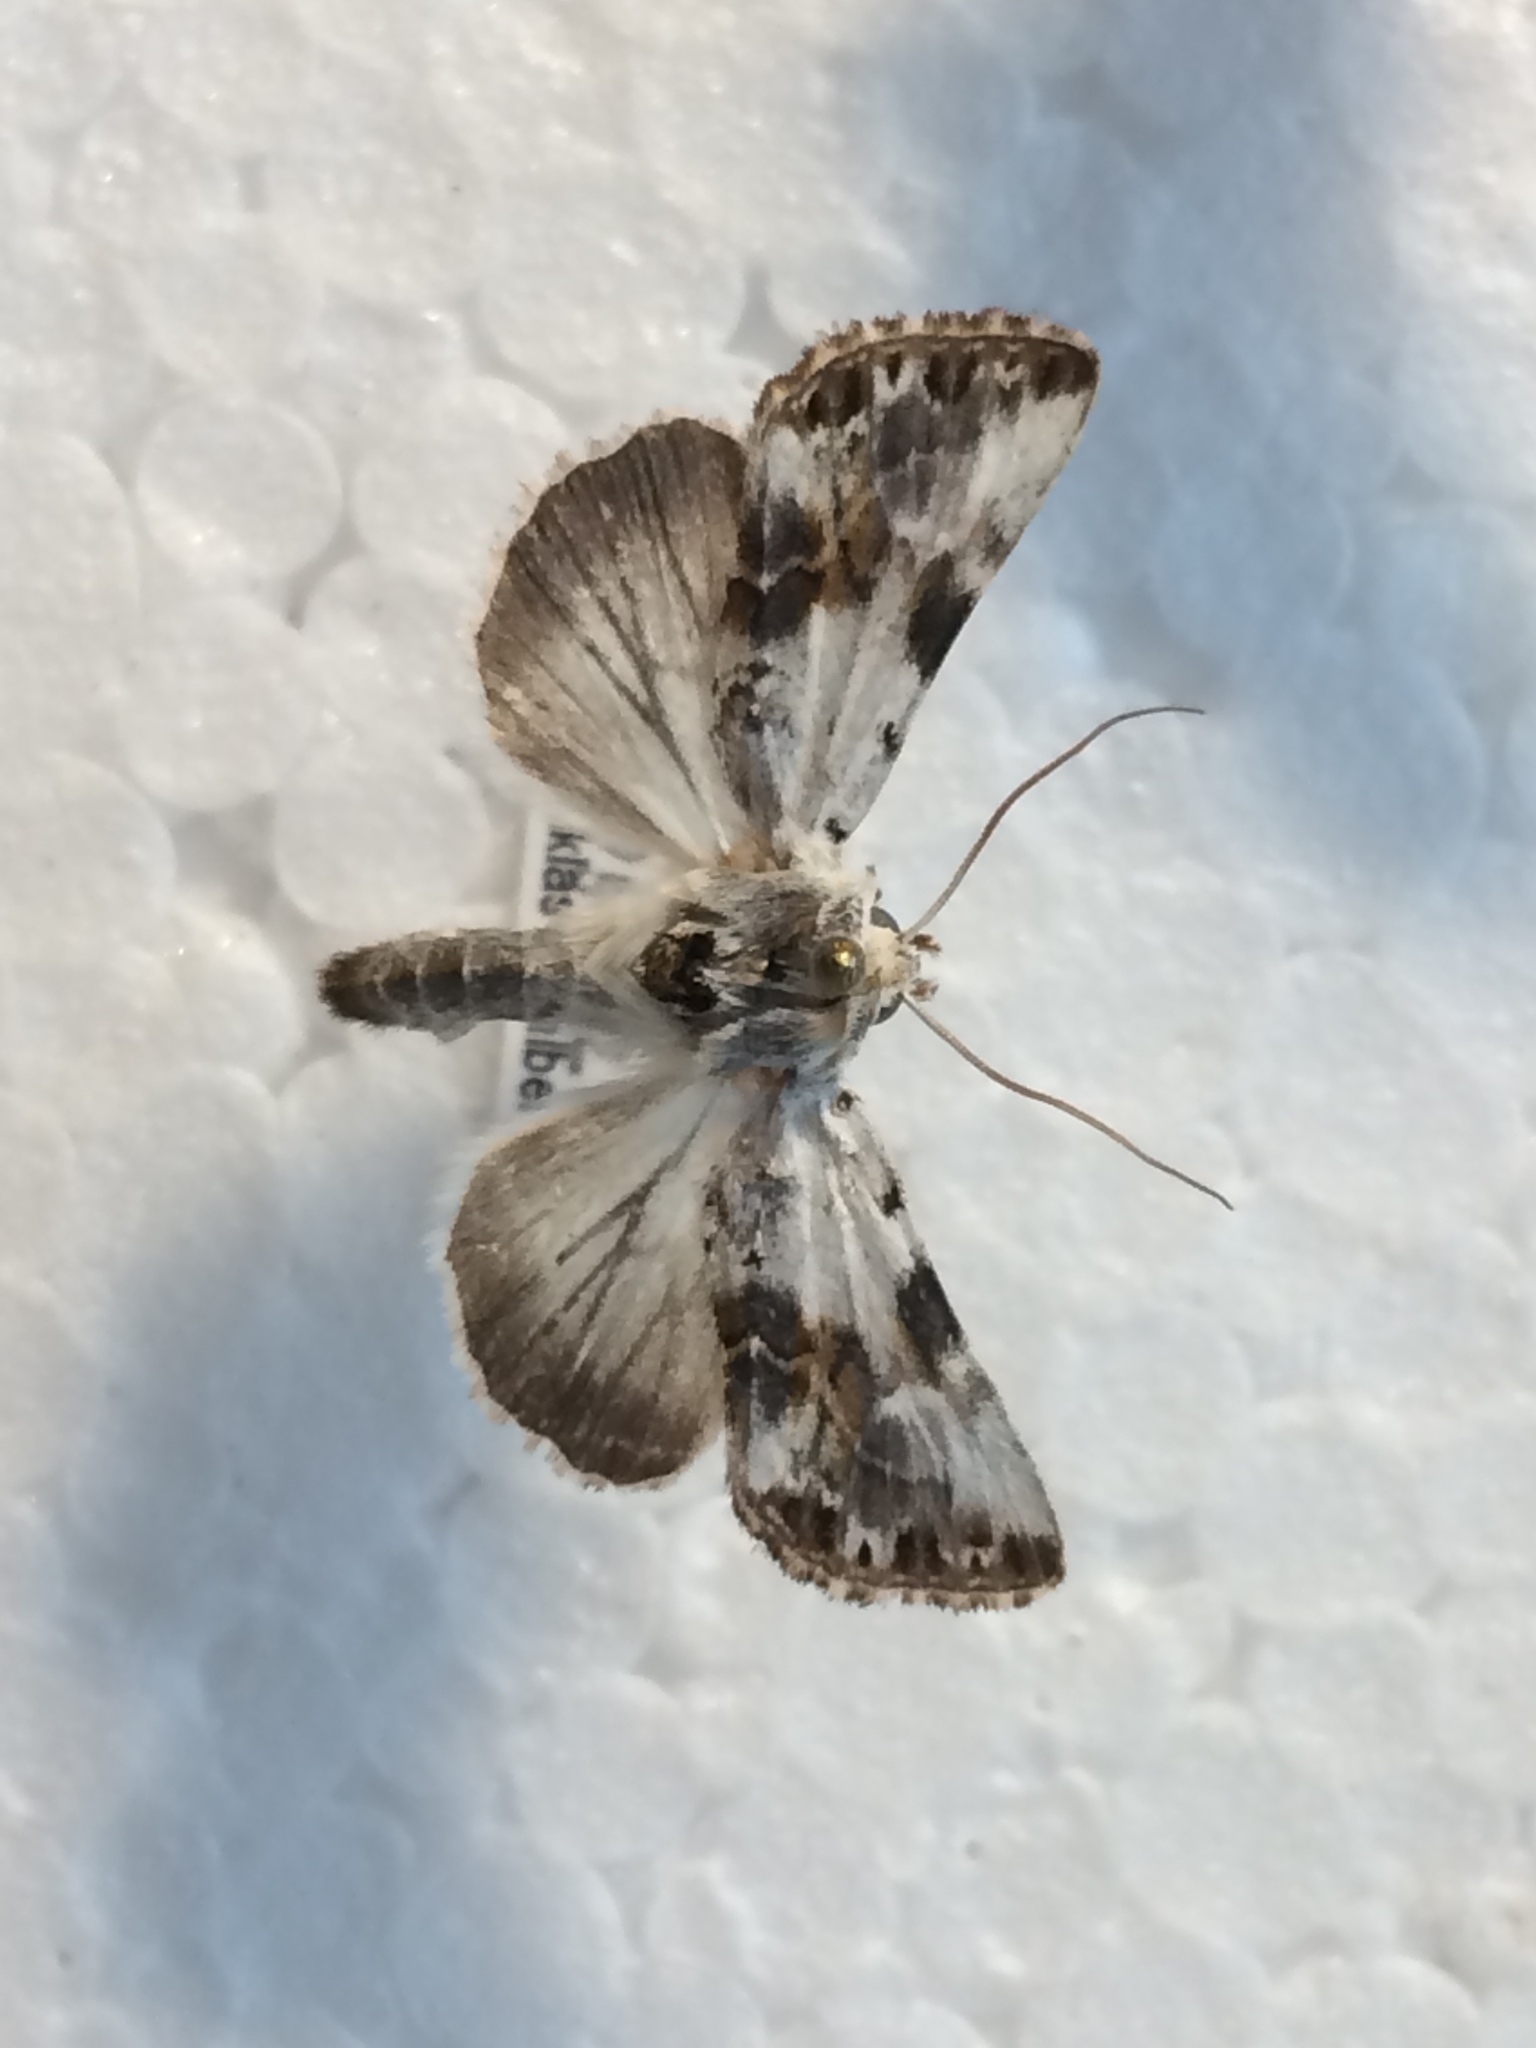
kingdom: Animalia
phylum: Arthropoda
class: Insecta
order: Lepidoptera
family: Noctuidae
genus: Calophasia
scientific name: Calophasia opalina
